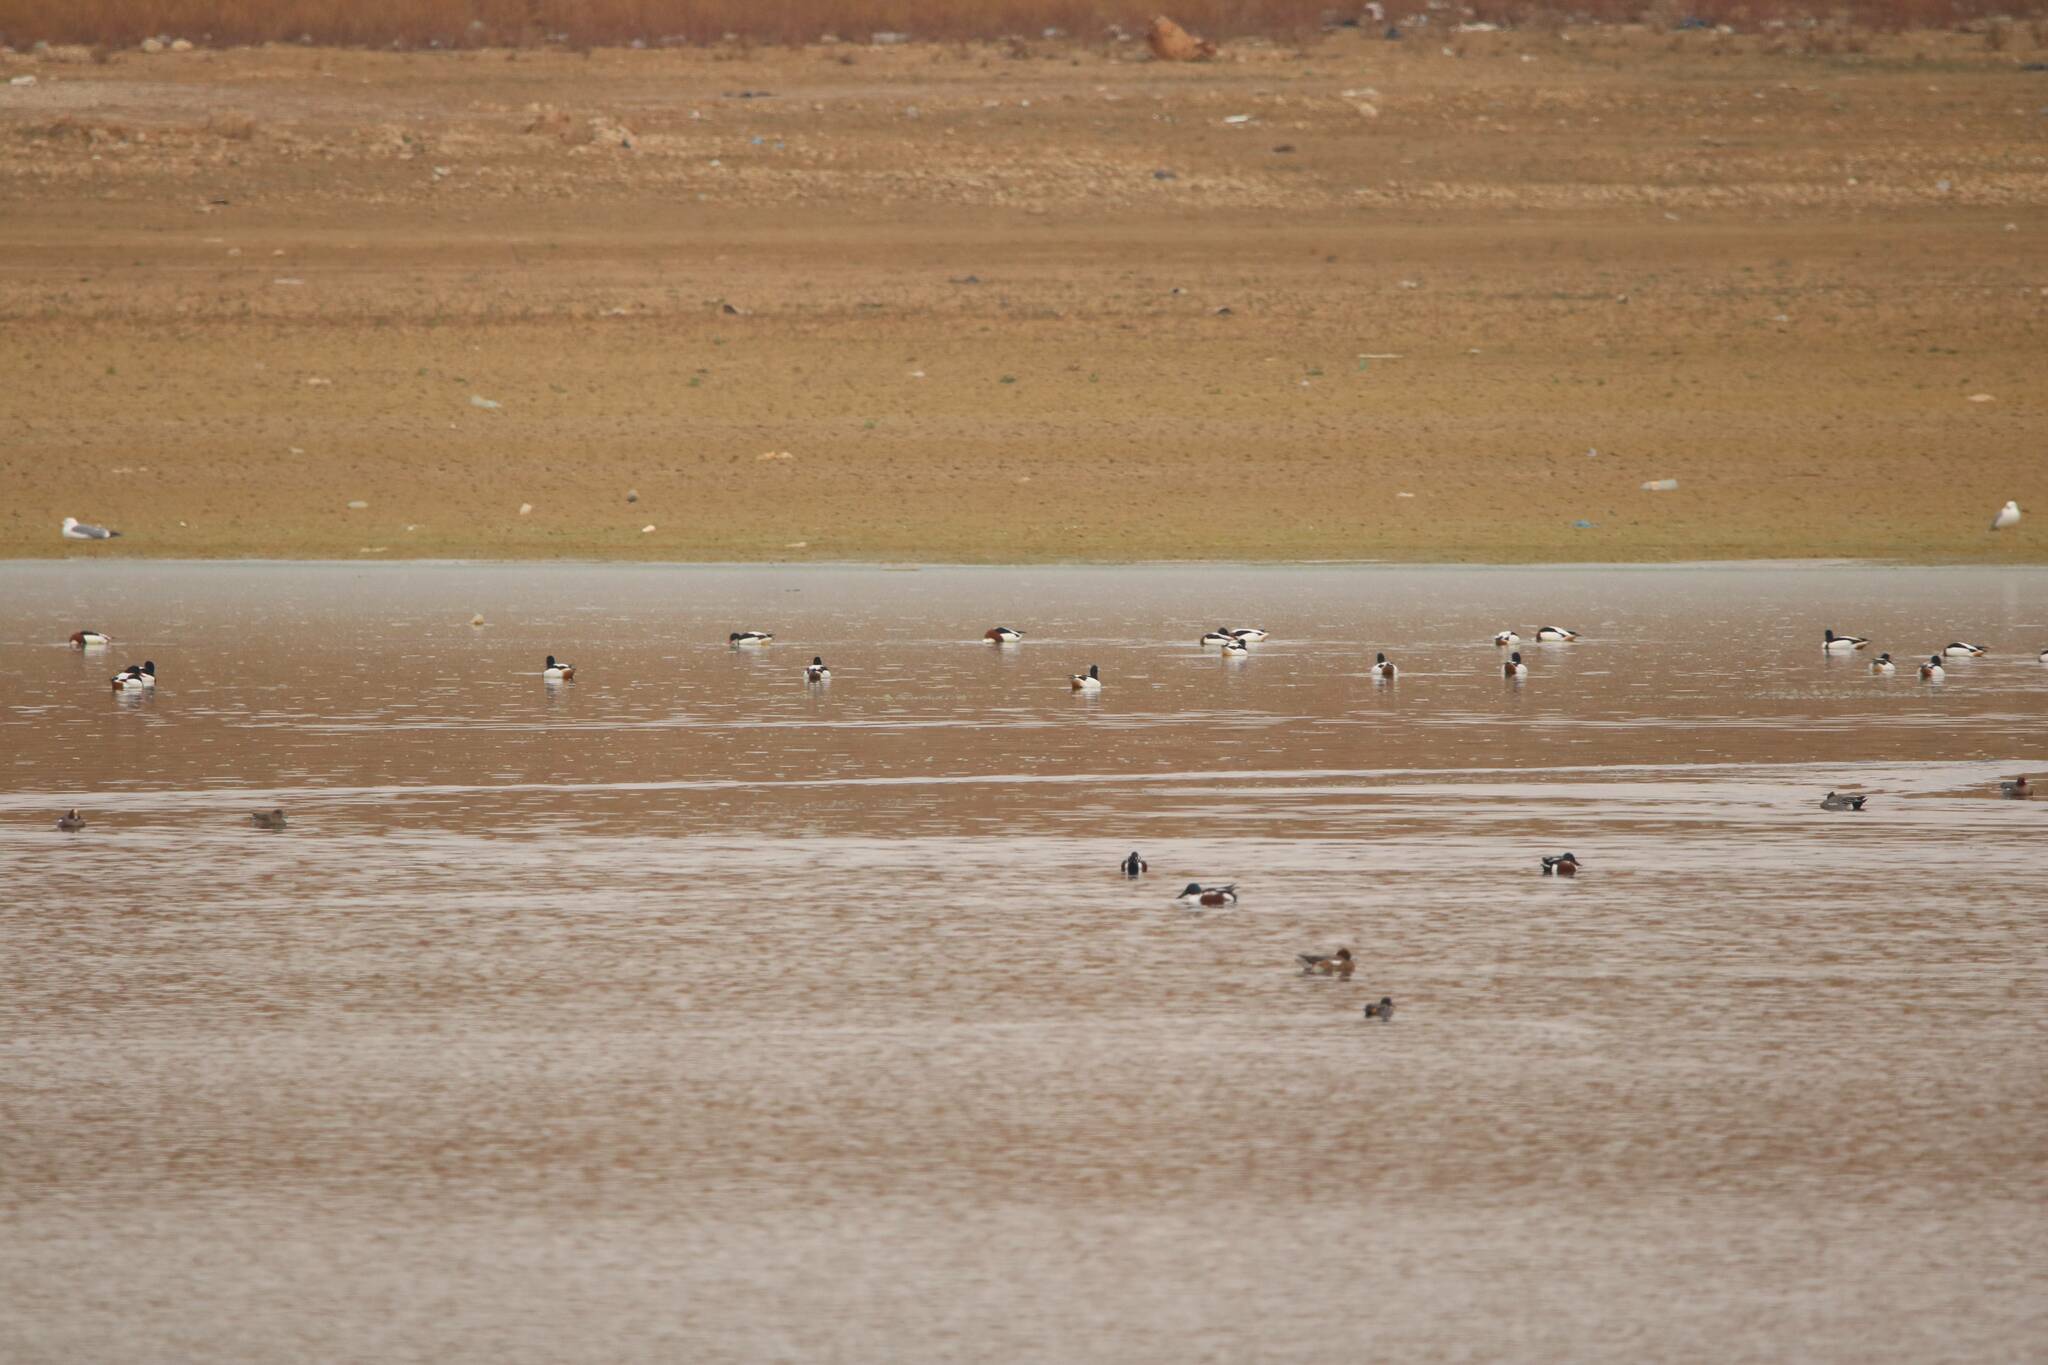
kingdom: Animalia
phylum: Chordata
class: Aves
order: Anseriformes
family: Anatidae
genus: Tadorna
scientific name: Tadorna tadorna
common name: Common shelduck
